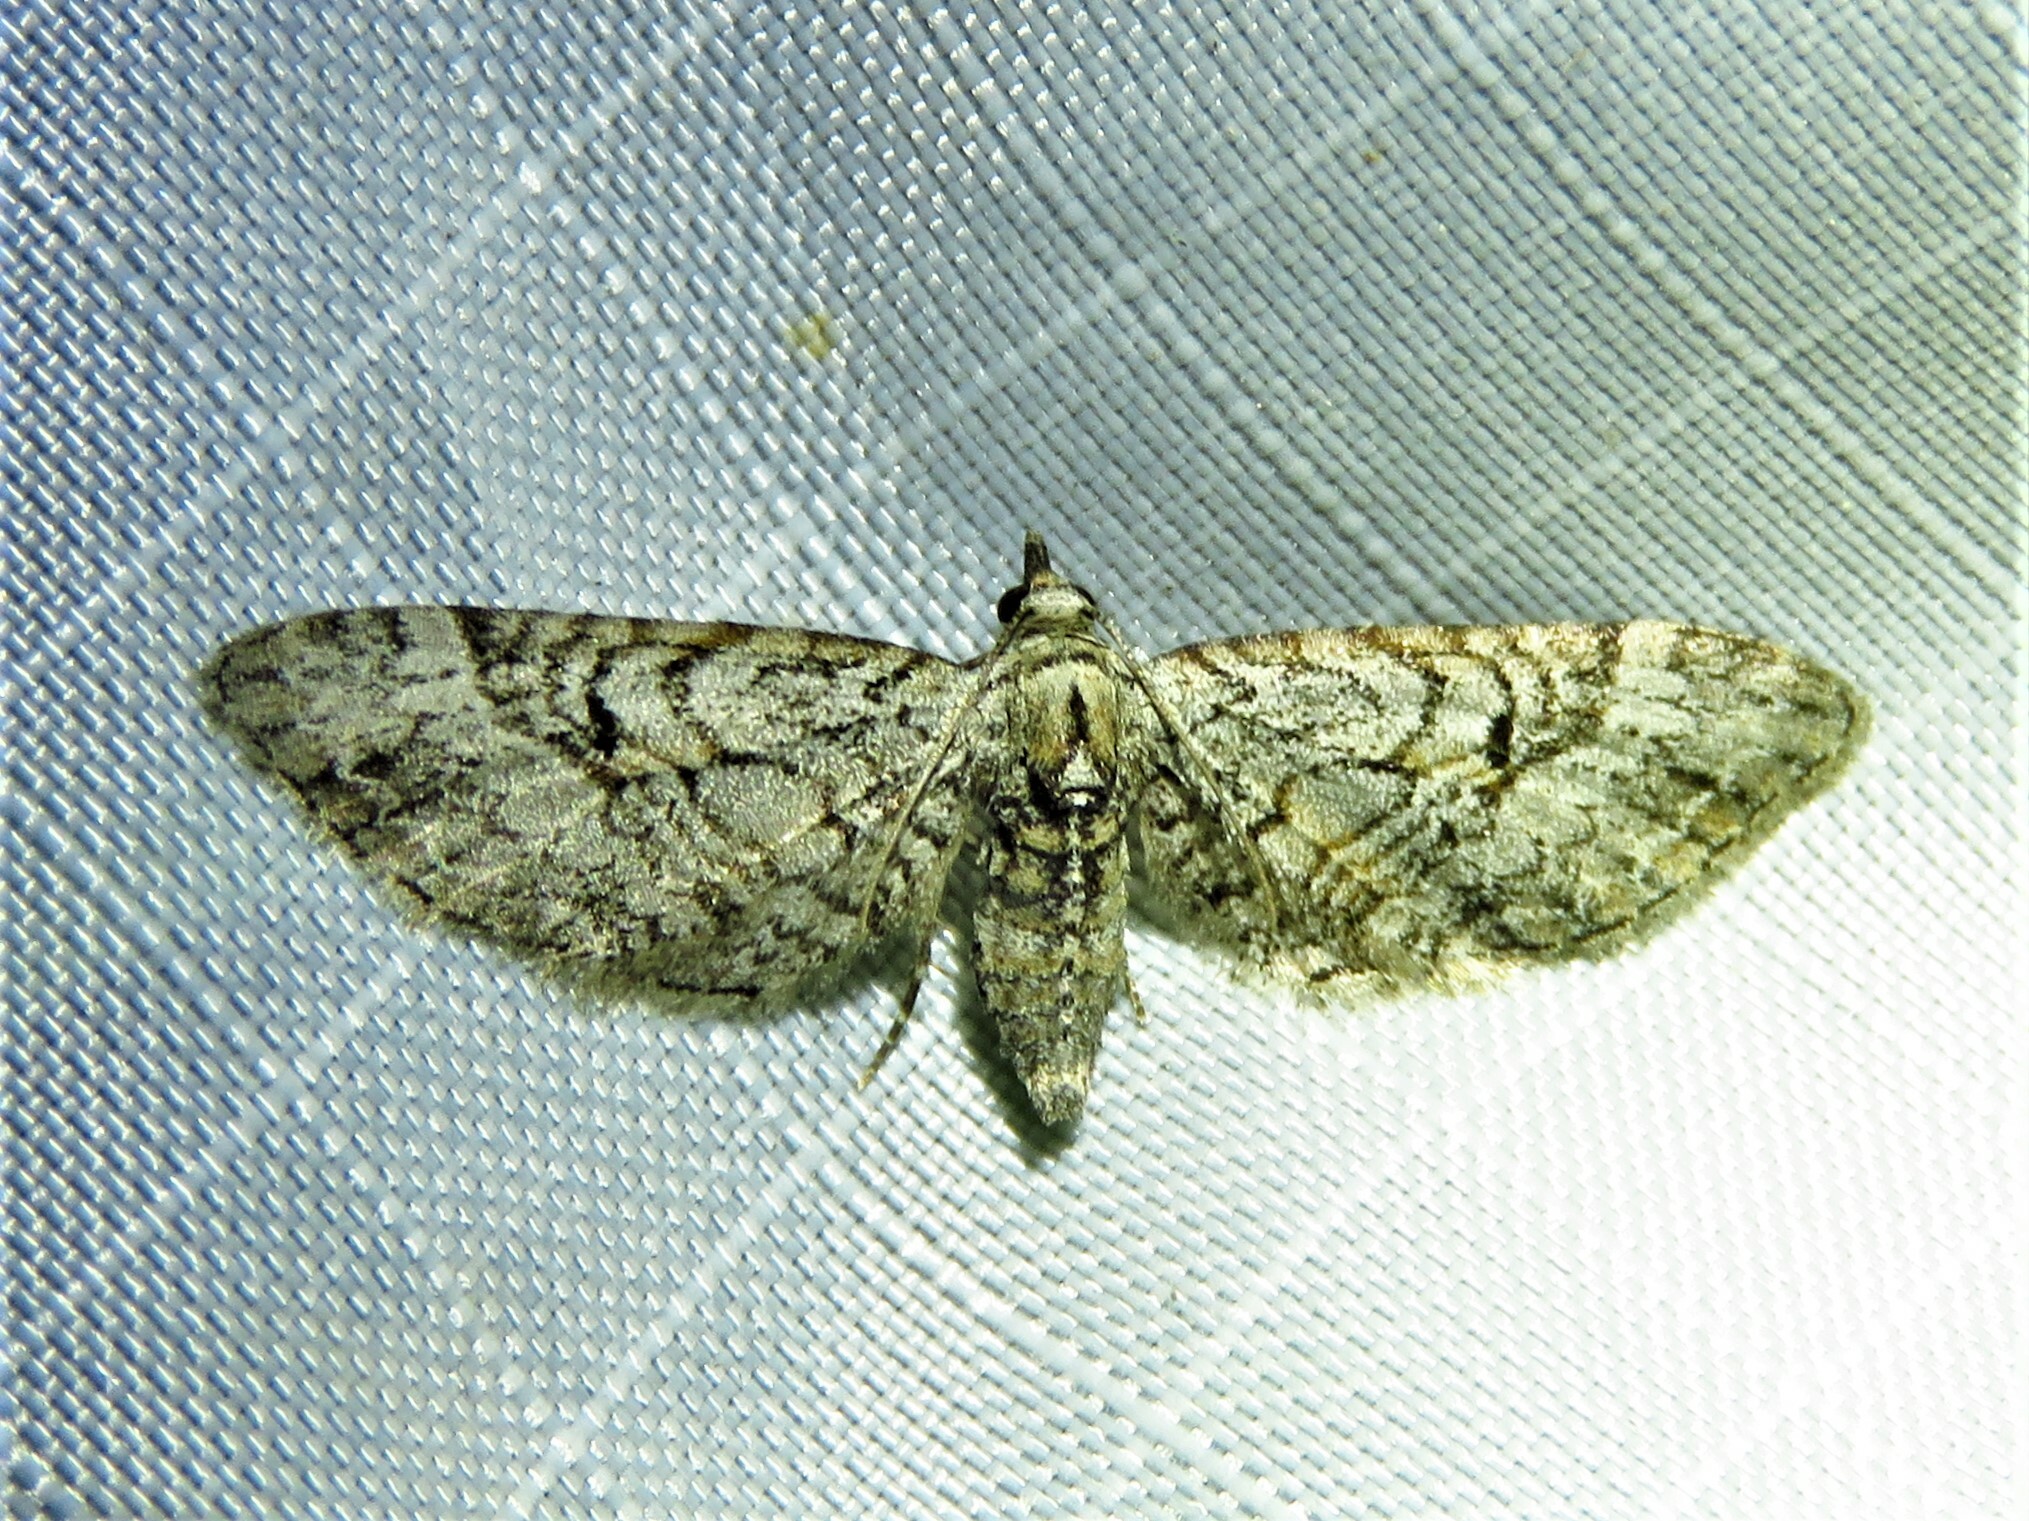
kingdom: Animalia
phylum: Arthropoda
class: Insecta
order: Lepidoptera
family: Geometridae
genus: Eupithecia
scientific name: Eupithecia bolterii
